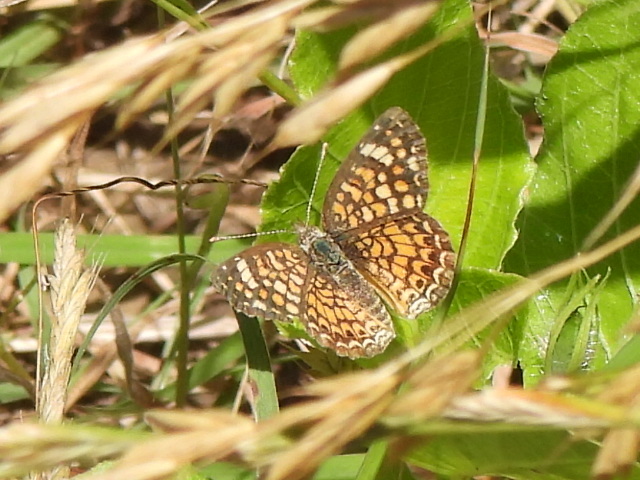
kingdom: Animalia
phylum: Arthropoda
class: Insecta
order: Lepidoptera
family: Nymphalidae
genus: Phyciodes
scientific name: Phyciodes vesta
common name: Vesta crescent
